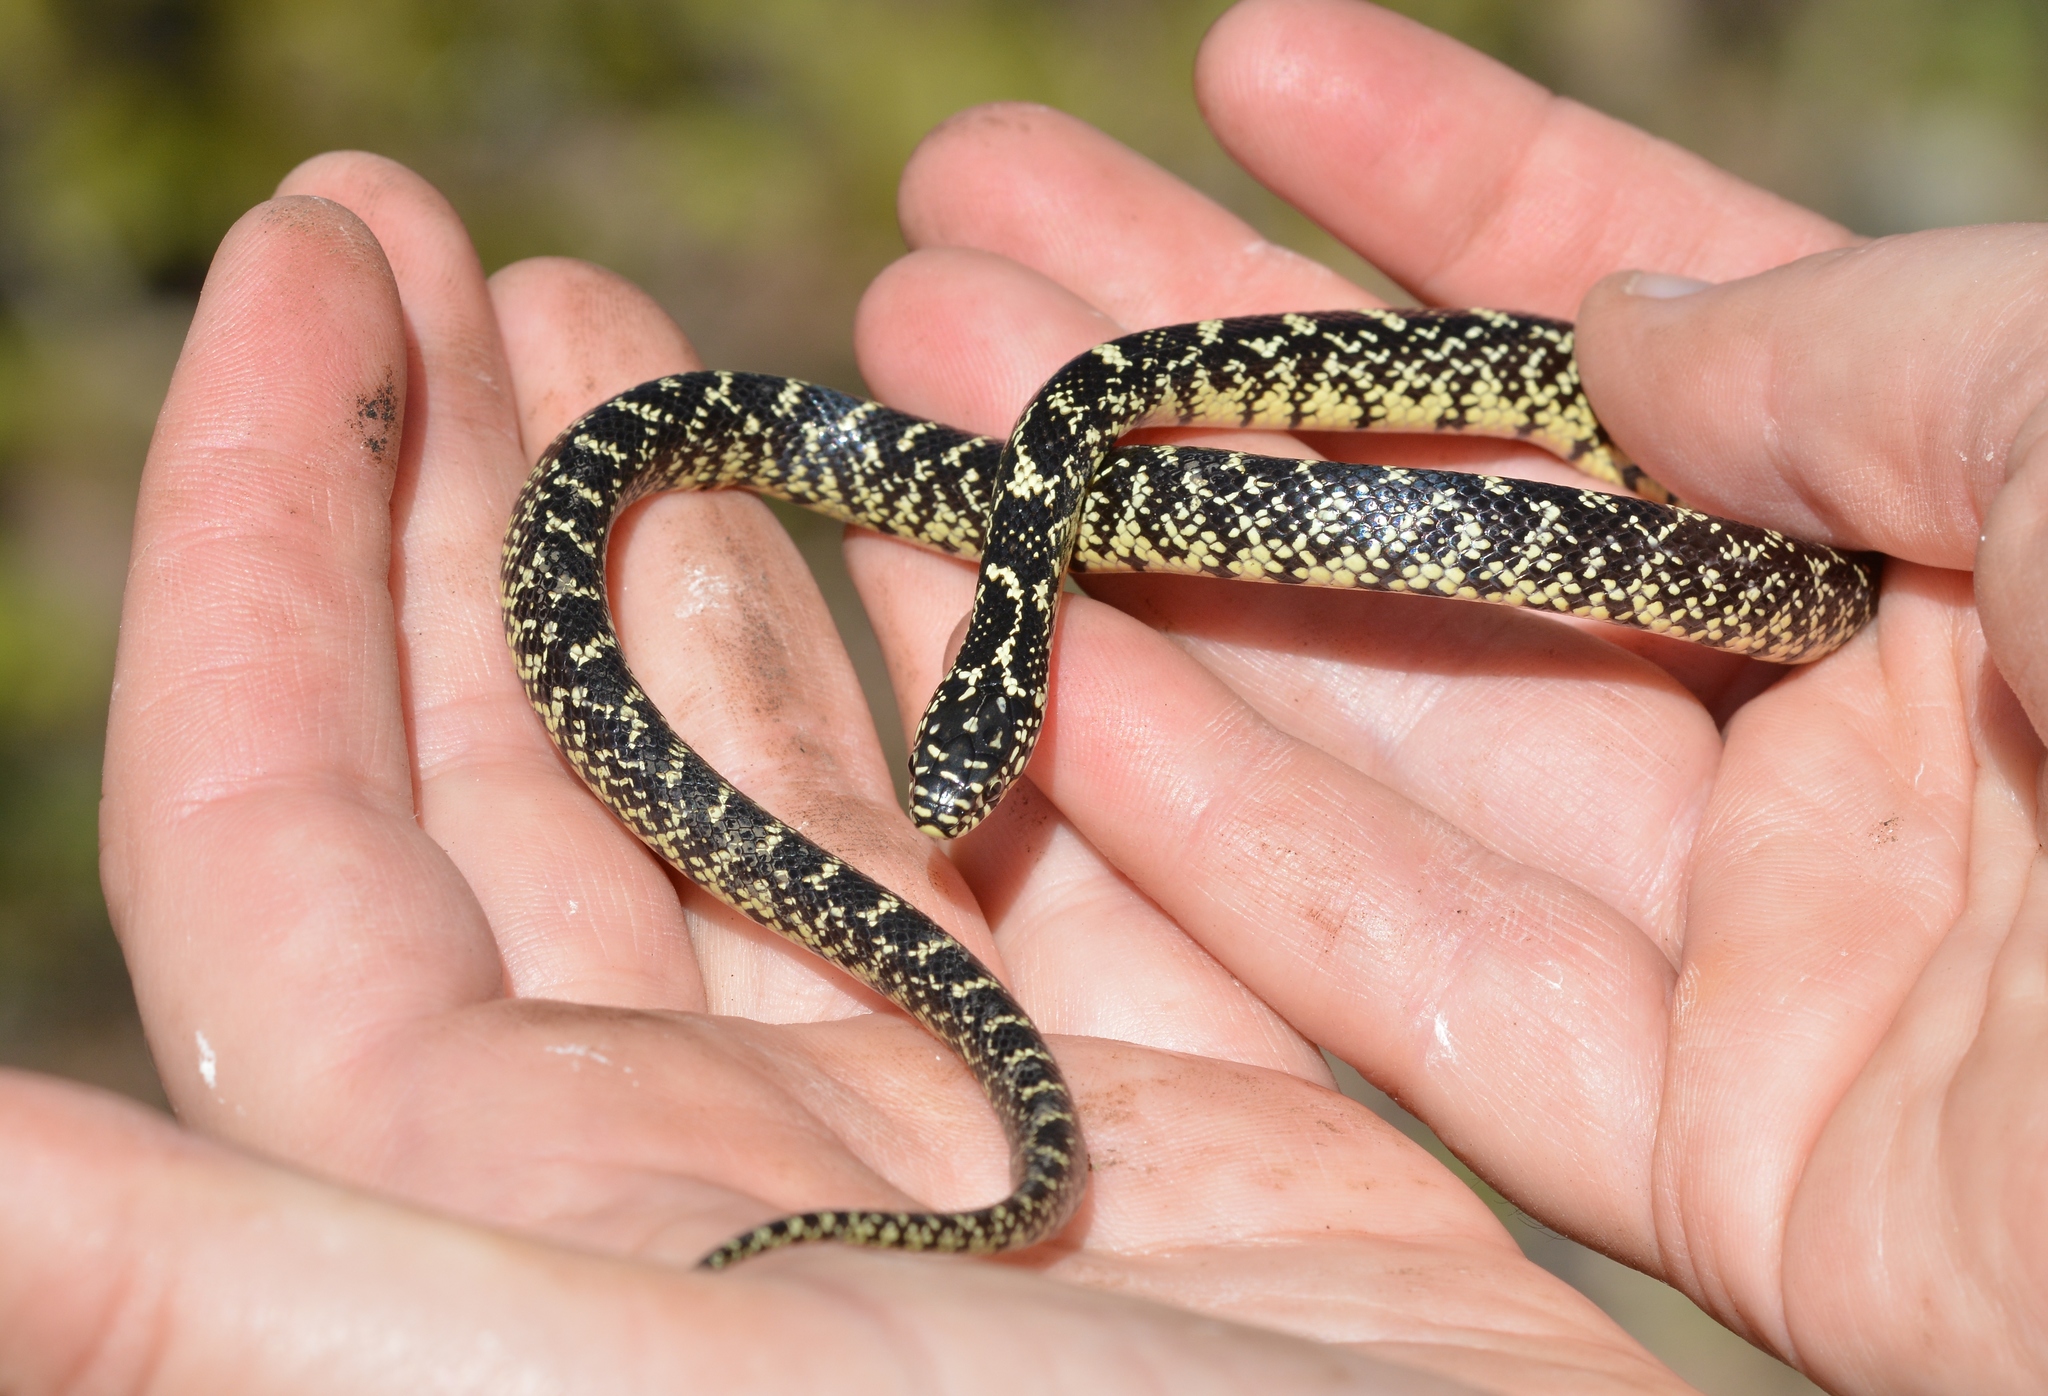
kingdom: Animalia
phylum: Chordata
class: Squamata
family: Colubridae
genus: Lampropeltis
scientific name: Lampropeltis holbrooki
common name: Speckled kingsnake
